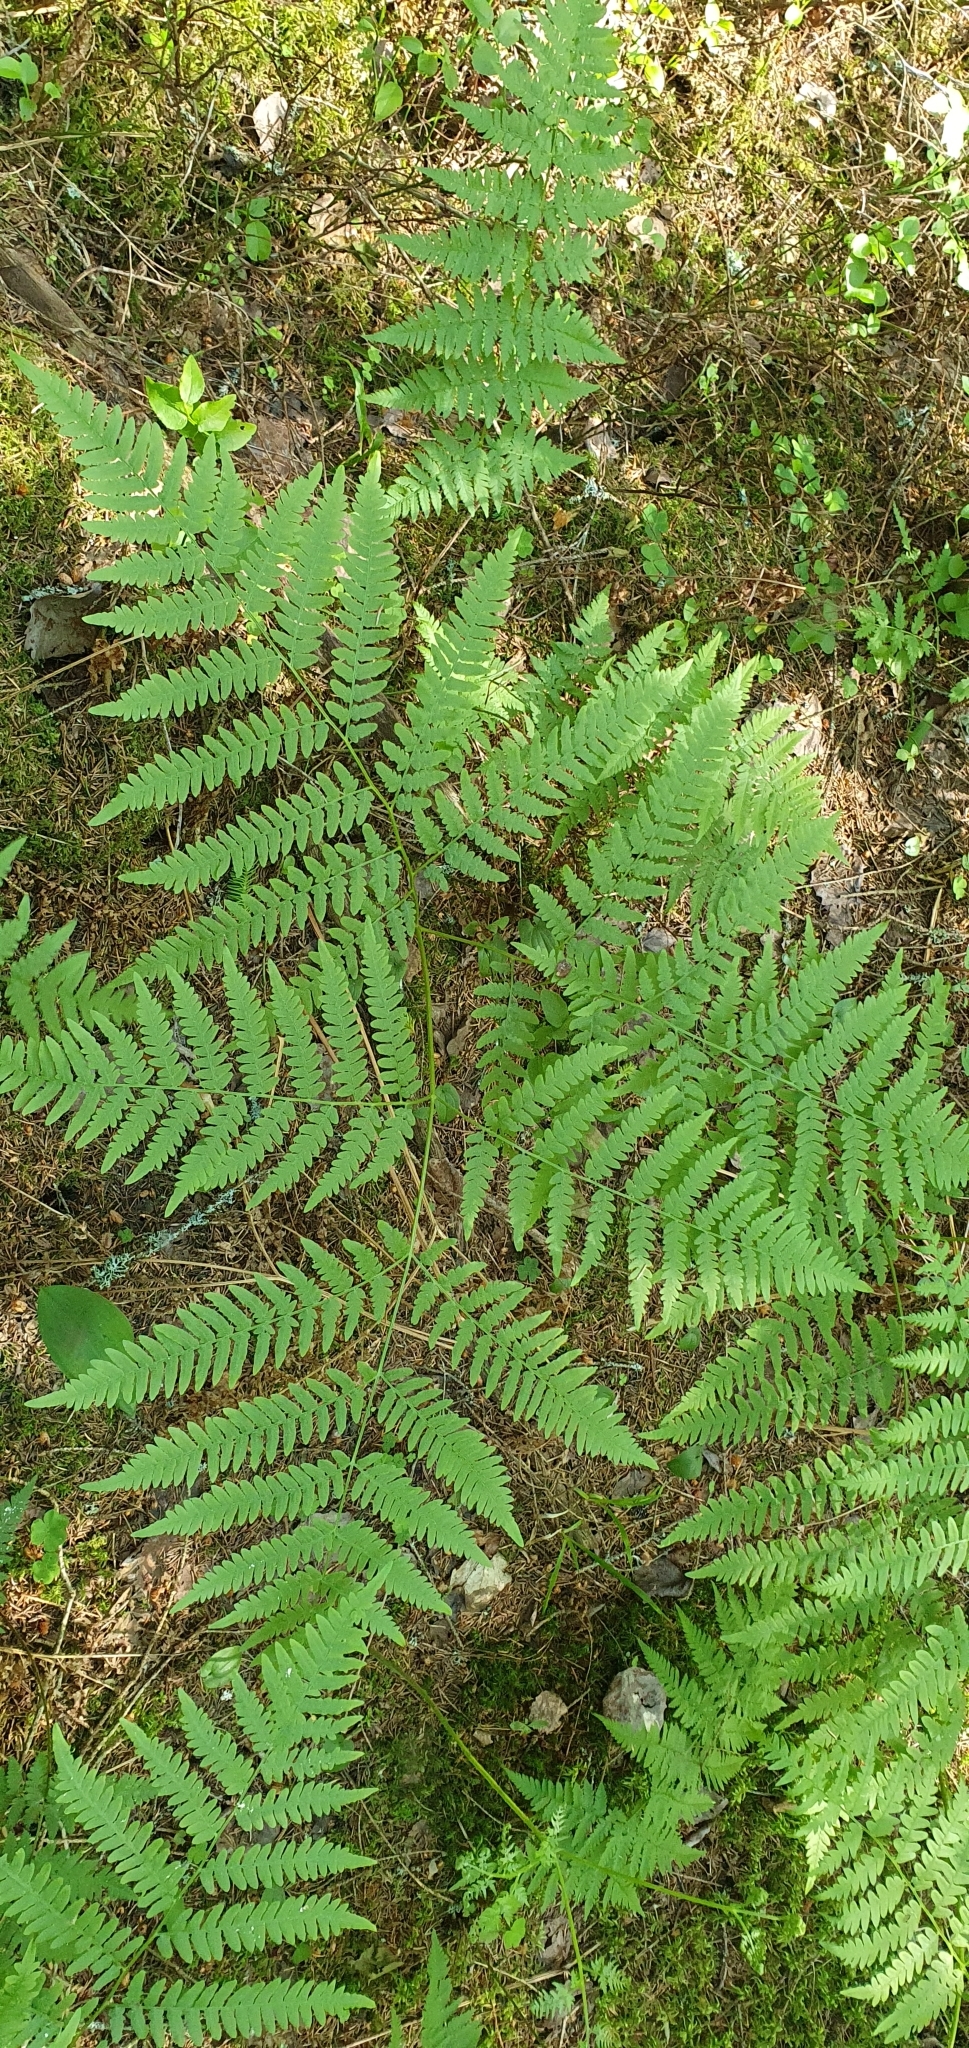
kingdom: Plantae
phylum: Tracheophyta
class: Polypodiopsida
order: Polypodiales
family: Dennstaedtiaceae
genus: Pteridium
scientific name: Pteridium aquilinum
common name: Bracken
